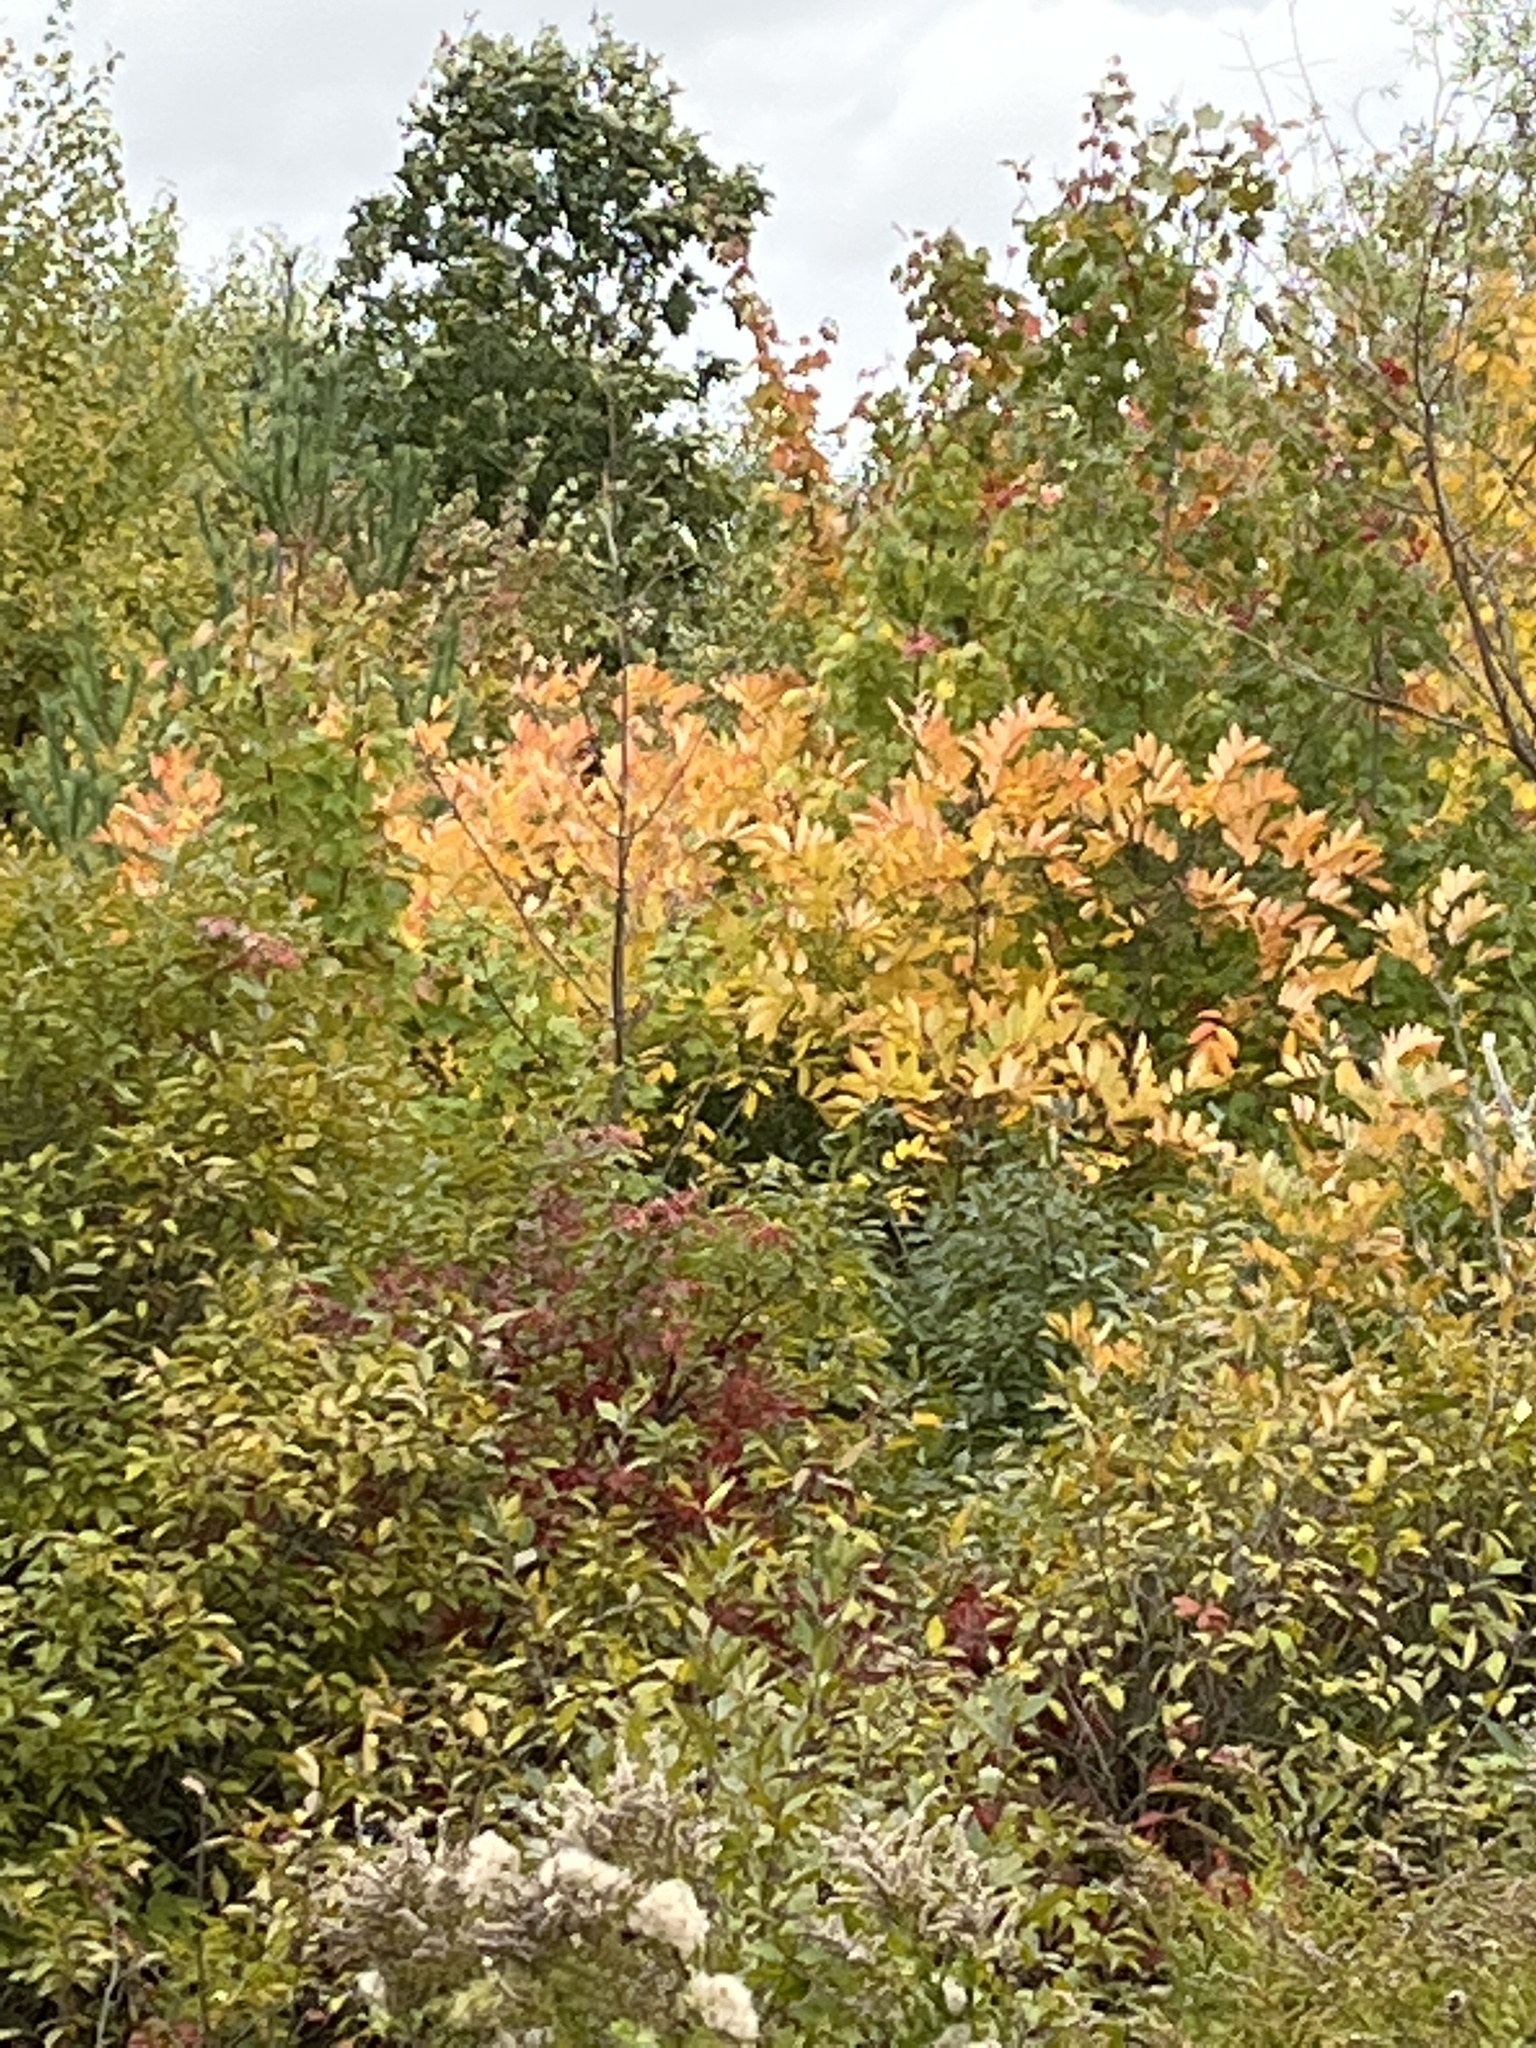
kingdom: Plantae
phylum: Tracheophyta
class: Magnoliopsida
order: Sapindales
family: Anacardiaceae
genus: Toxicodendron
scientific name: Toxicodendron vernix
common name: Poison sumac
